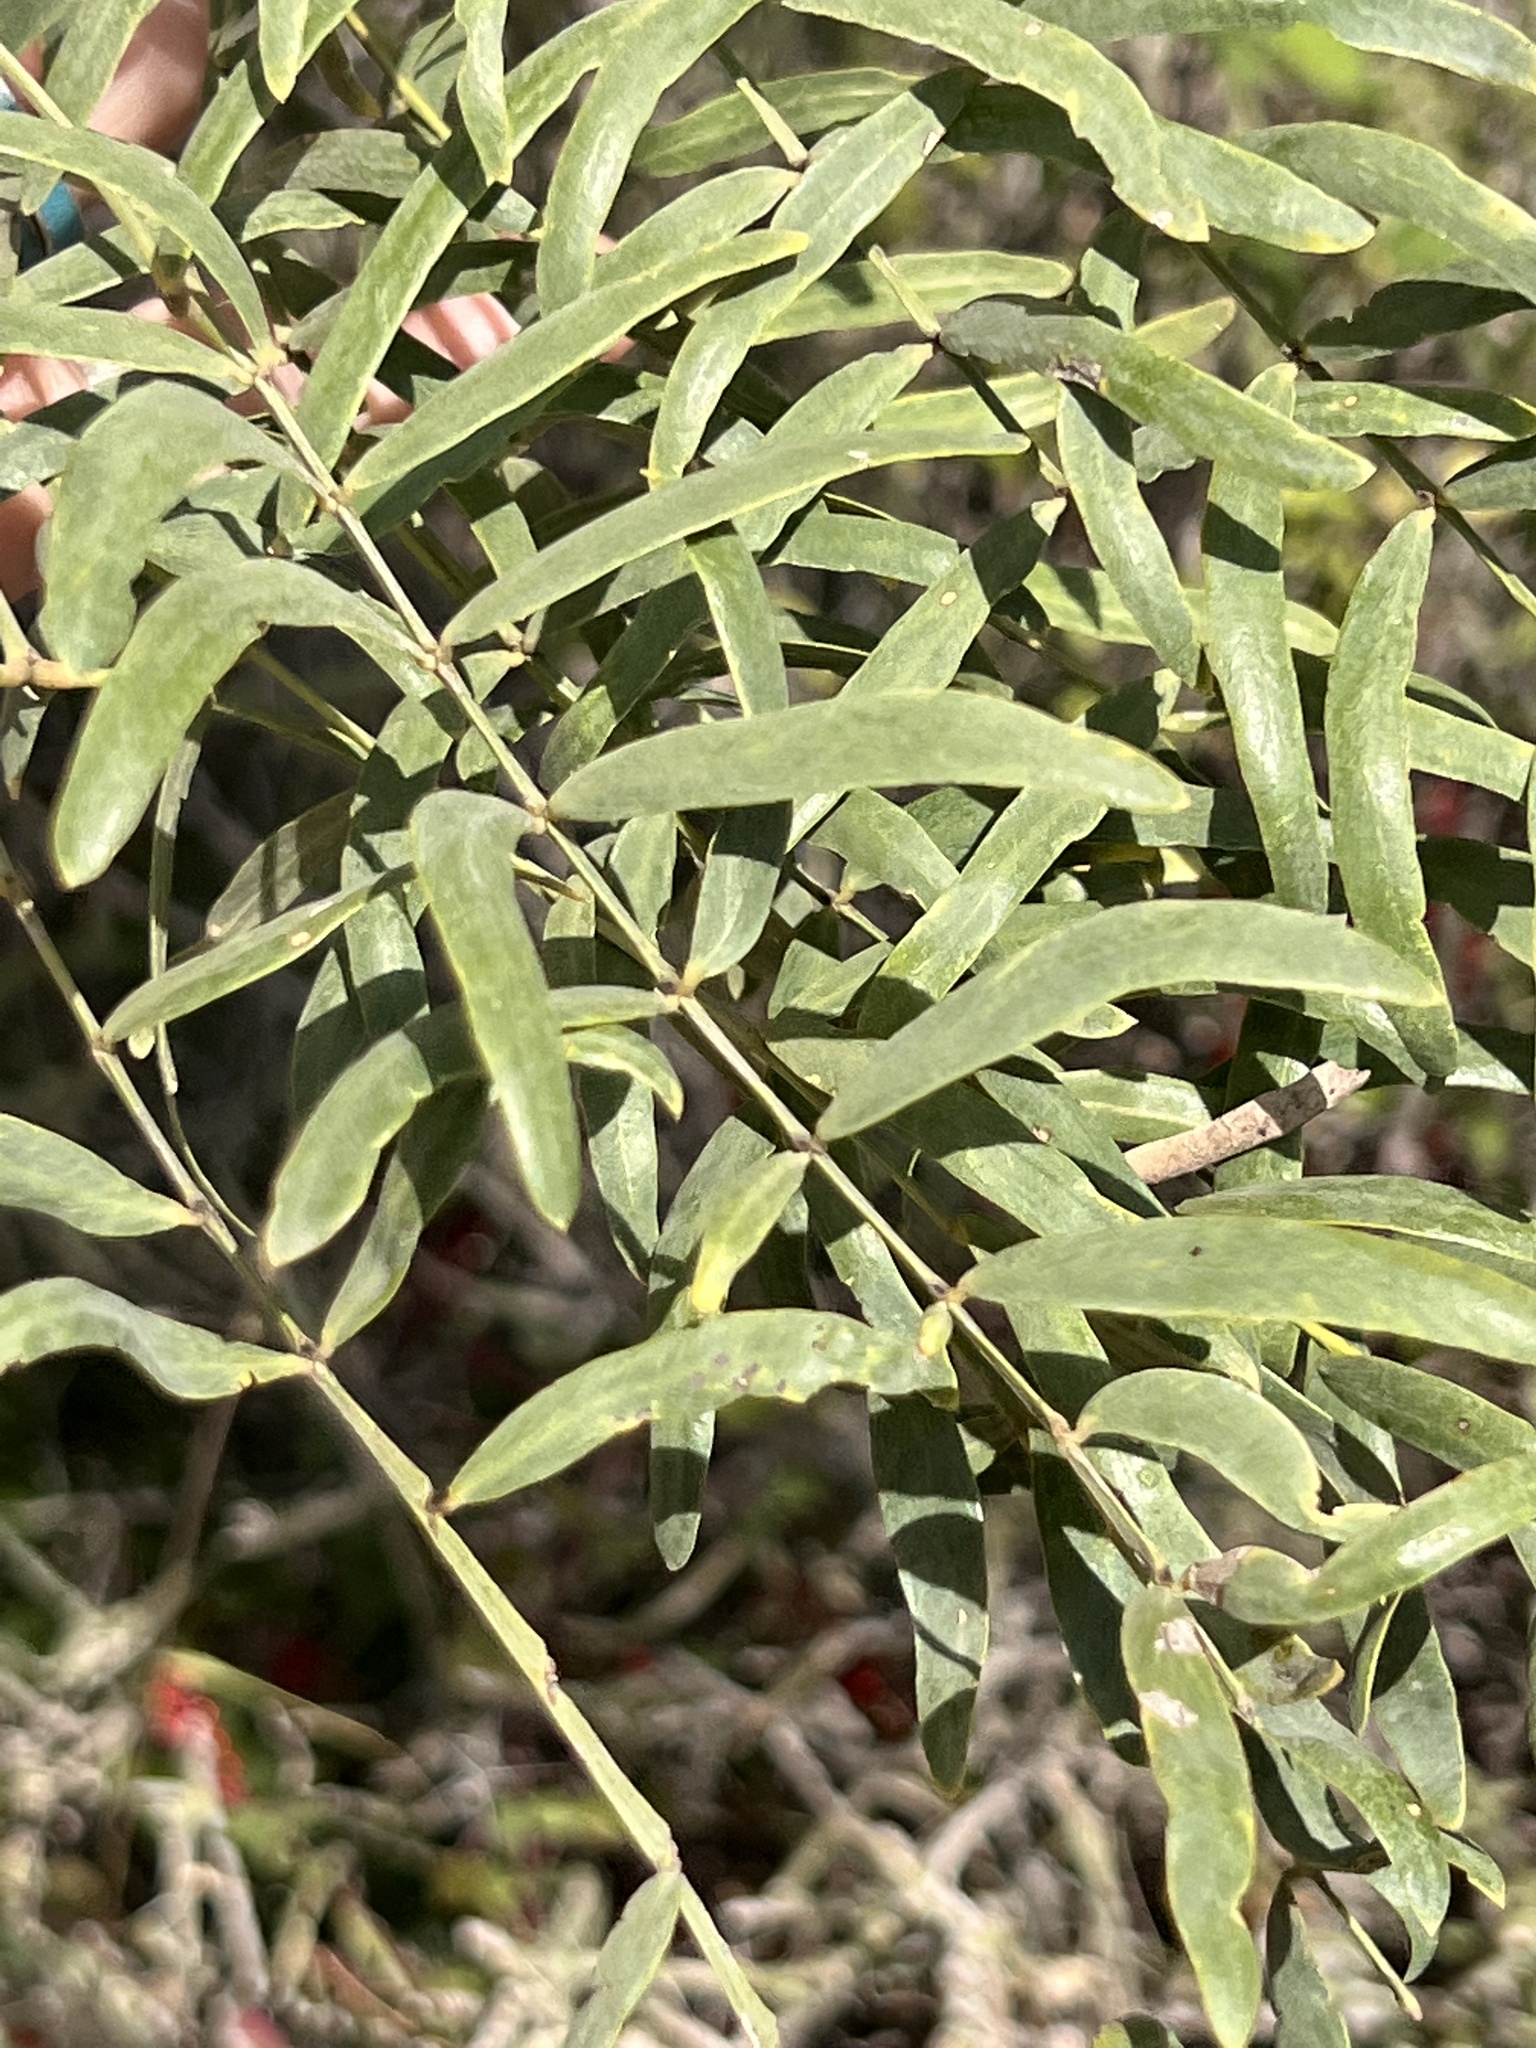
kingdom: Plantae
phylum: Tracheophyta
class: Magnoliopsida
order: Fabales
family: Fabaceae
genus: Prosopis
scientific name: Prosopis glandulosa
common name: Honey mesquite
